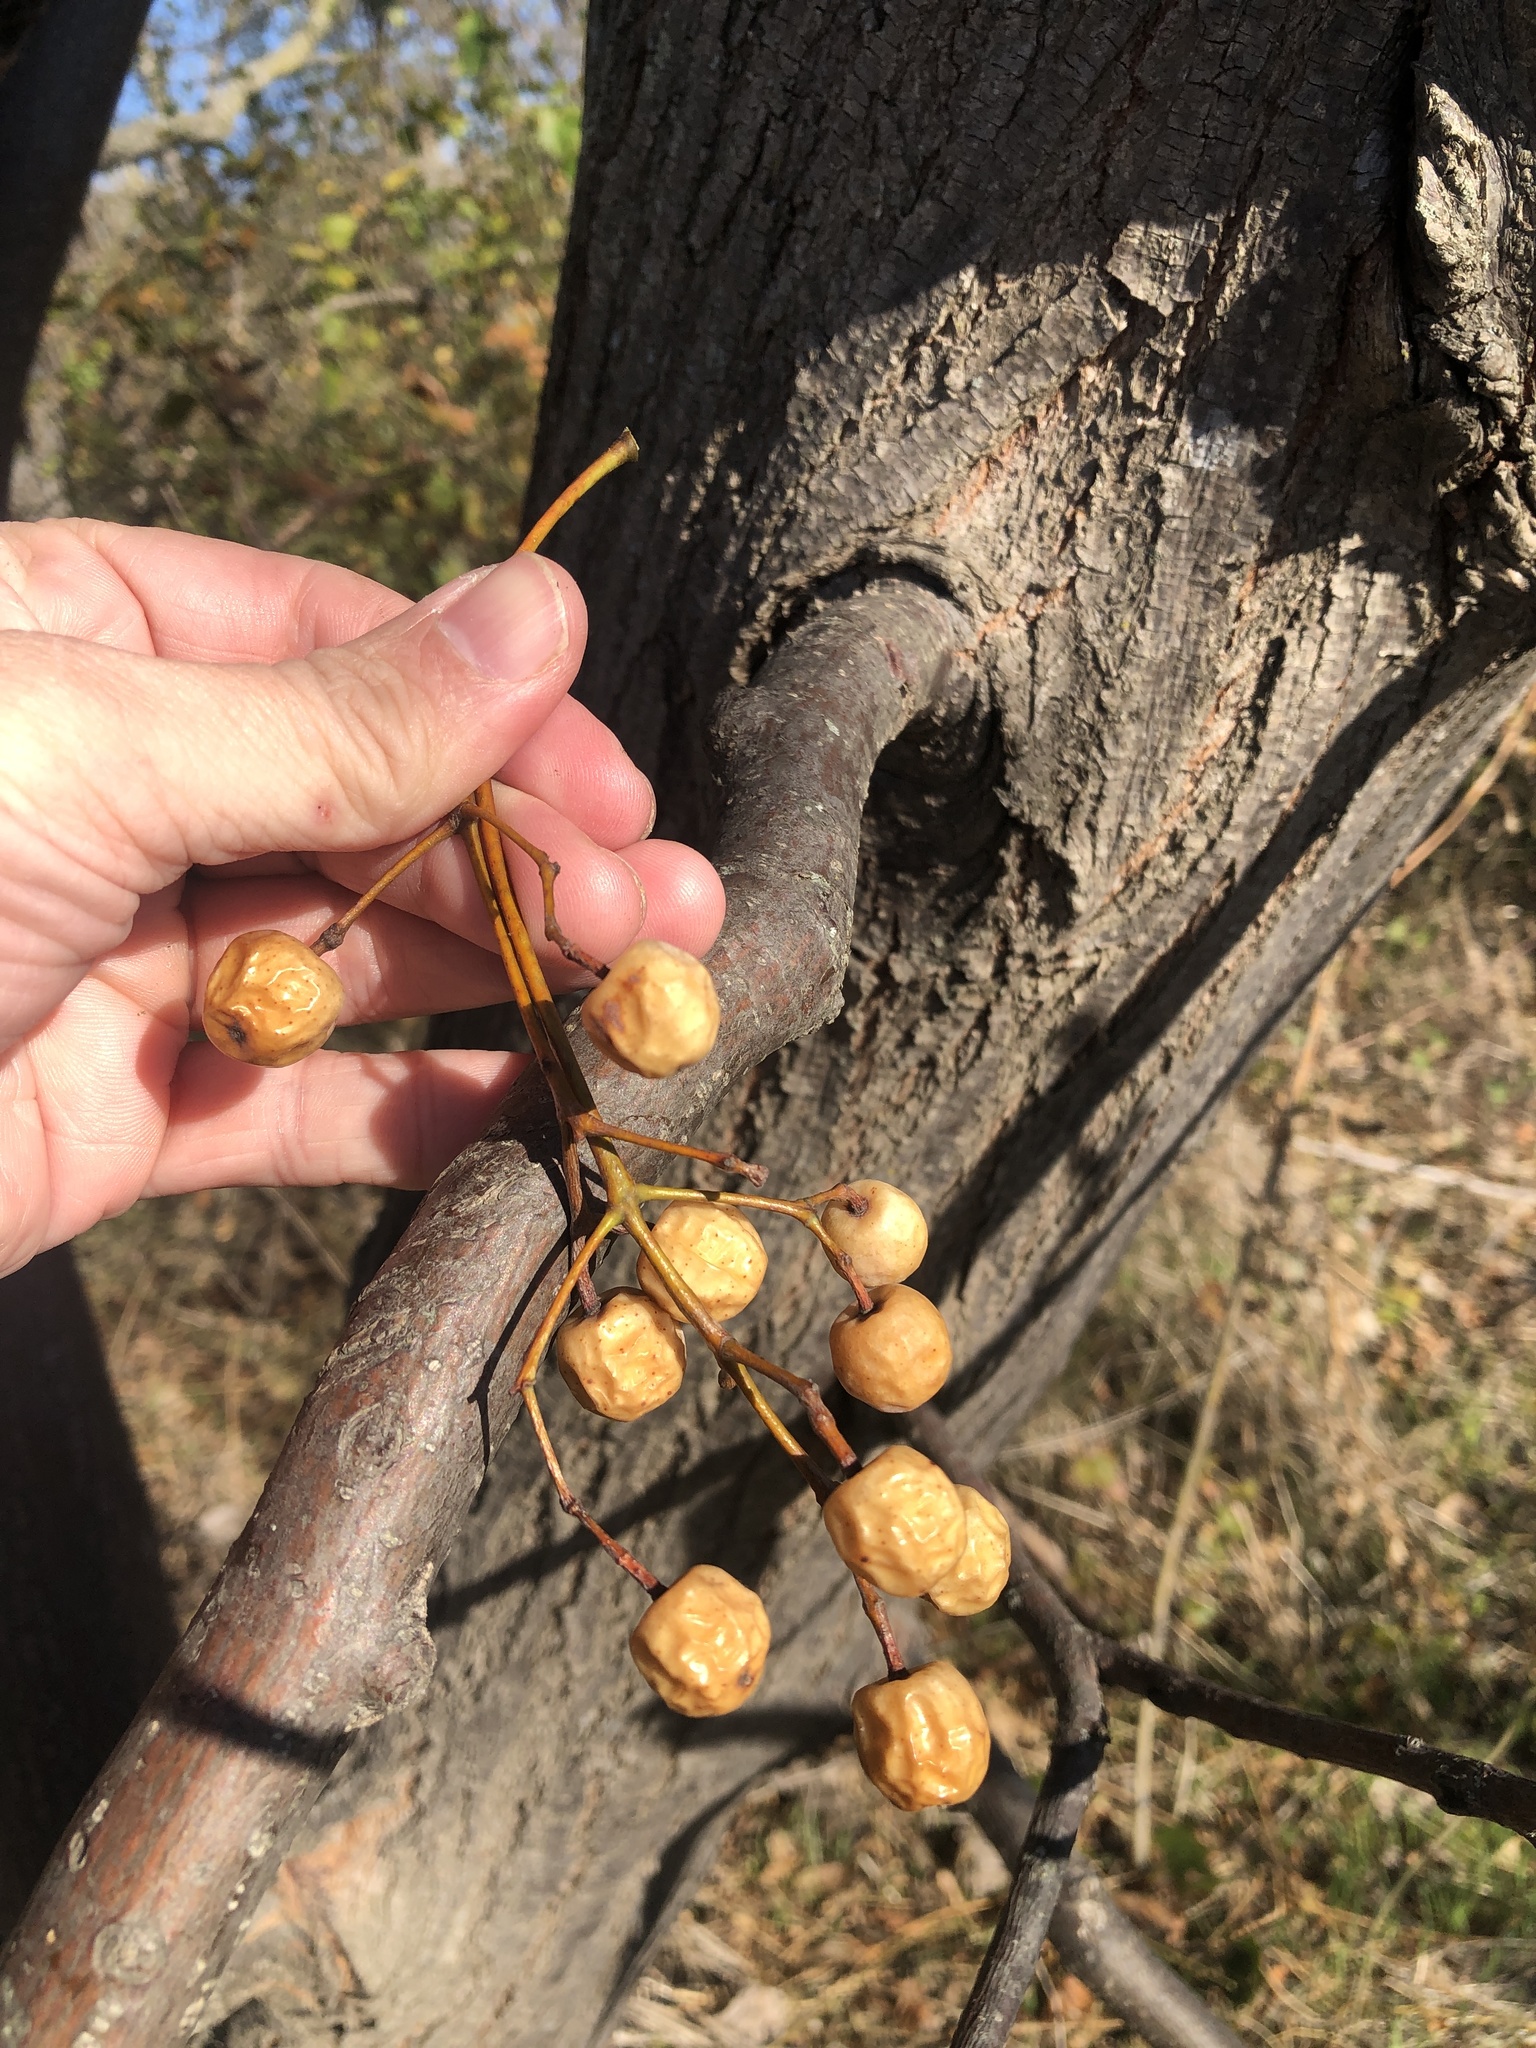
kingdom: Plantae
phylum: Tracheophyta
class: Magnoliopsida
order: Sapindales
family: Meliaceae
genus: Melia
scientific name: Melia azedarach
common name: Chinaberrytree
